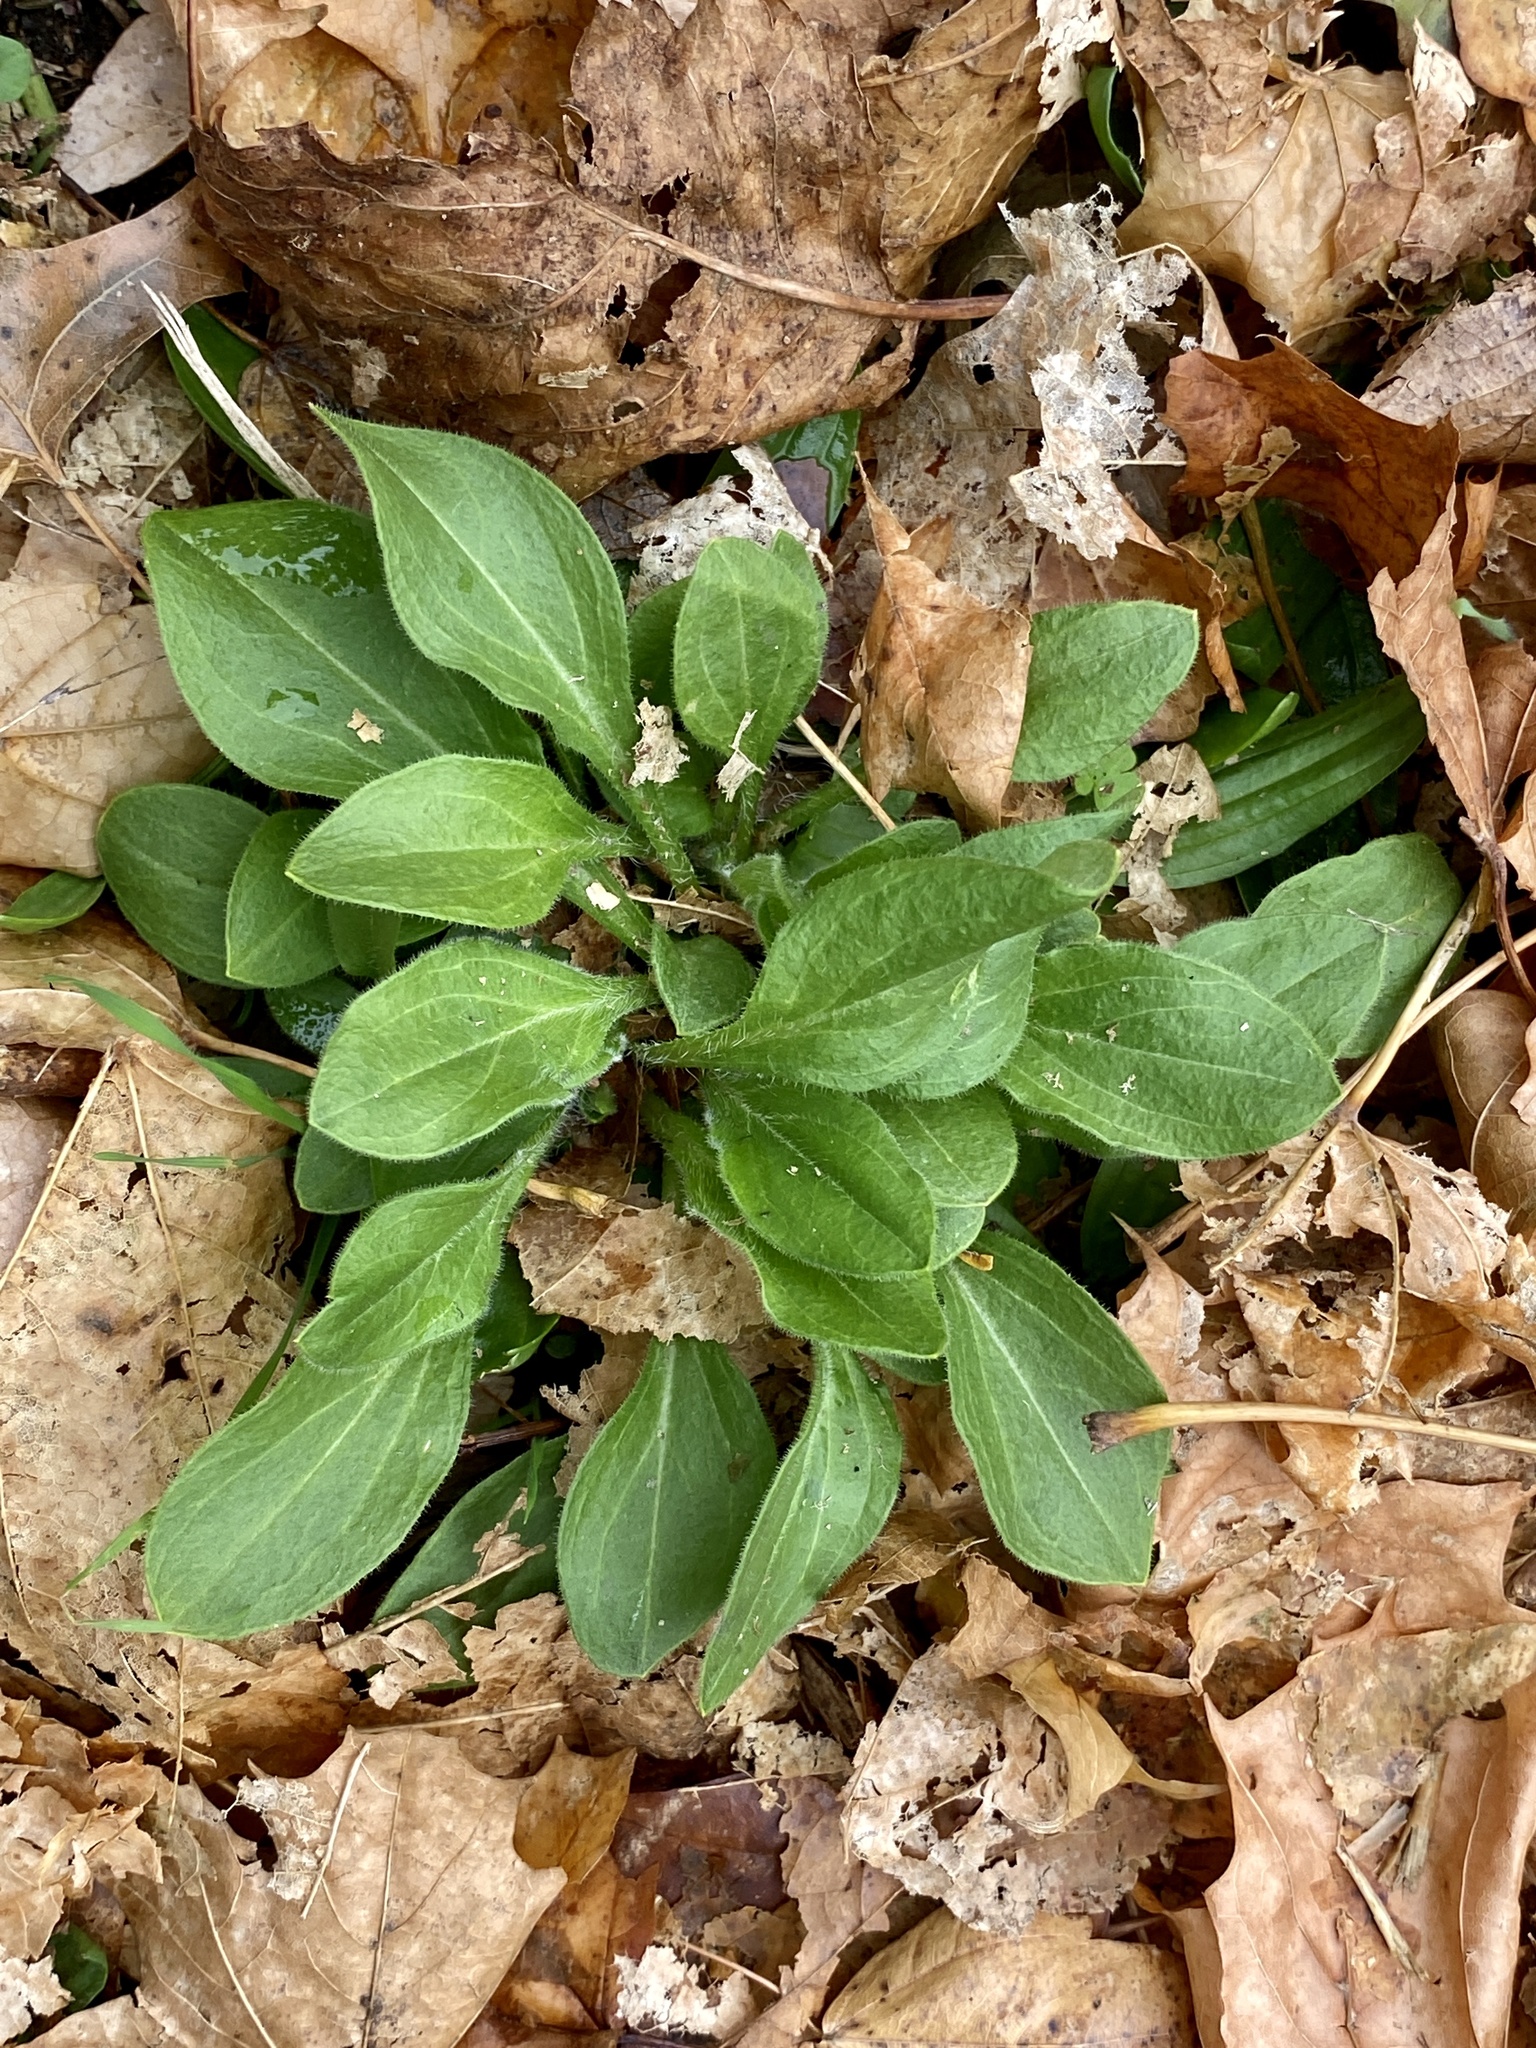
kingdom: Plantae
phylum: Tracheophyta
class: Magnoliopsida
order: Caryophyllales
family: Caryophyllaceae
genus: Silene
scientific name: Silene latifolia
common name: White campion
